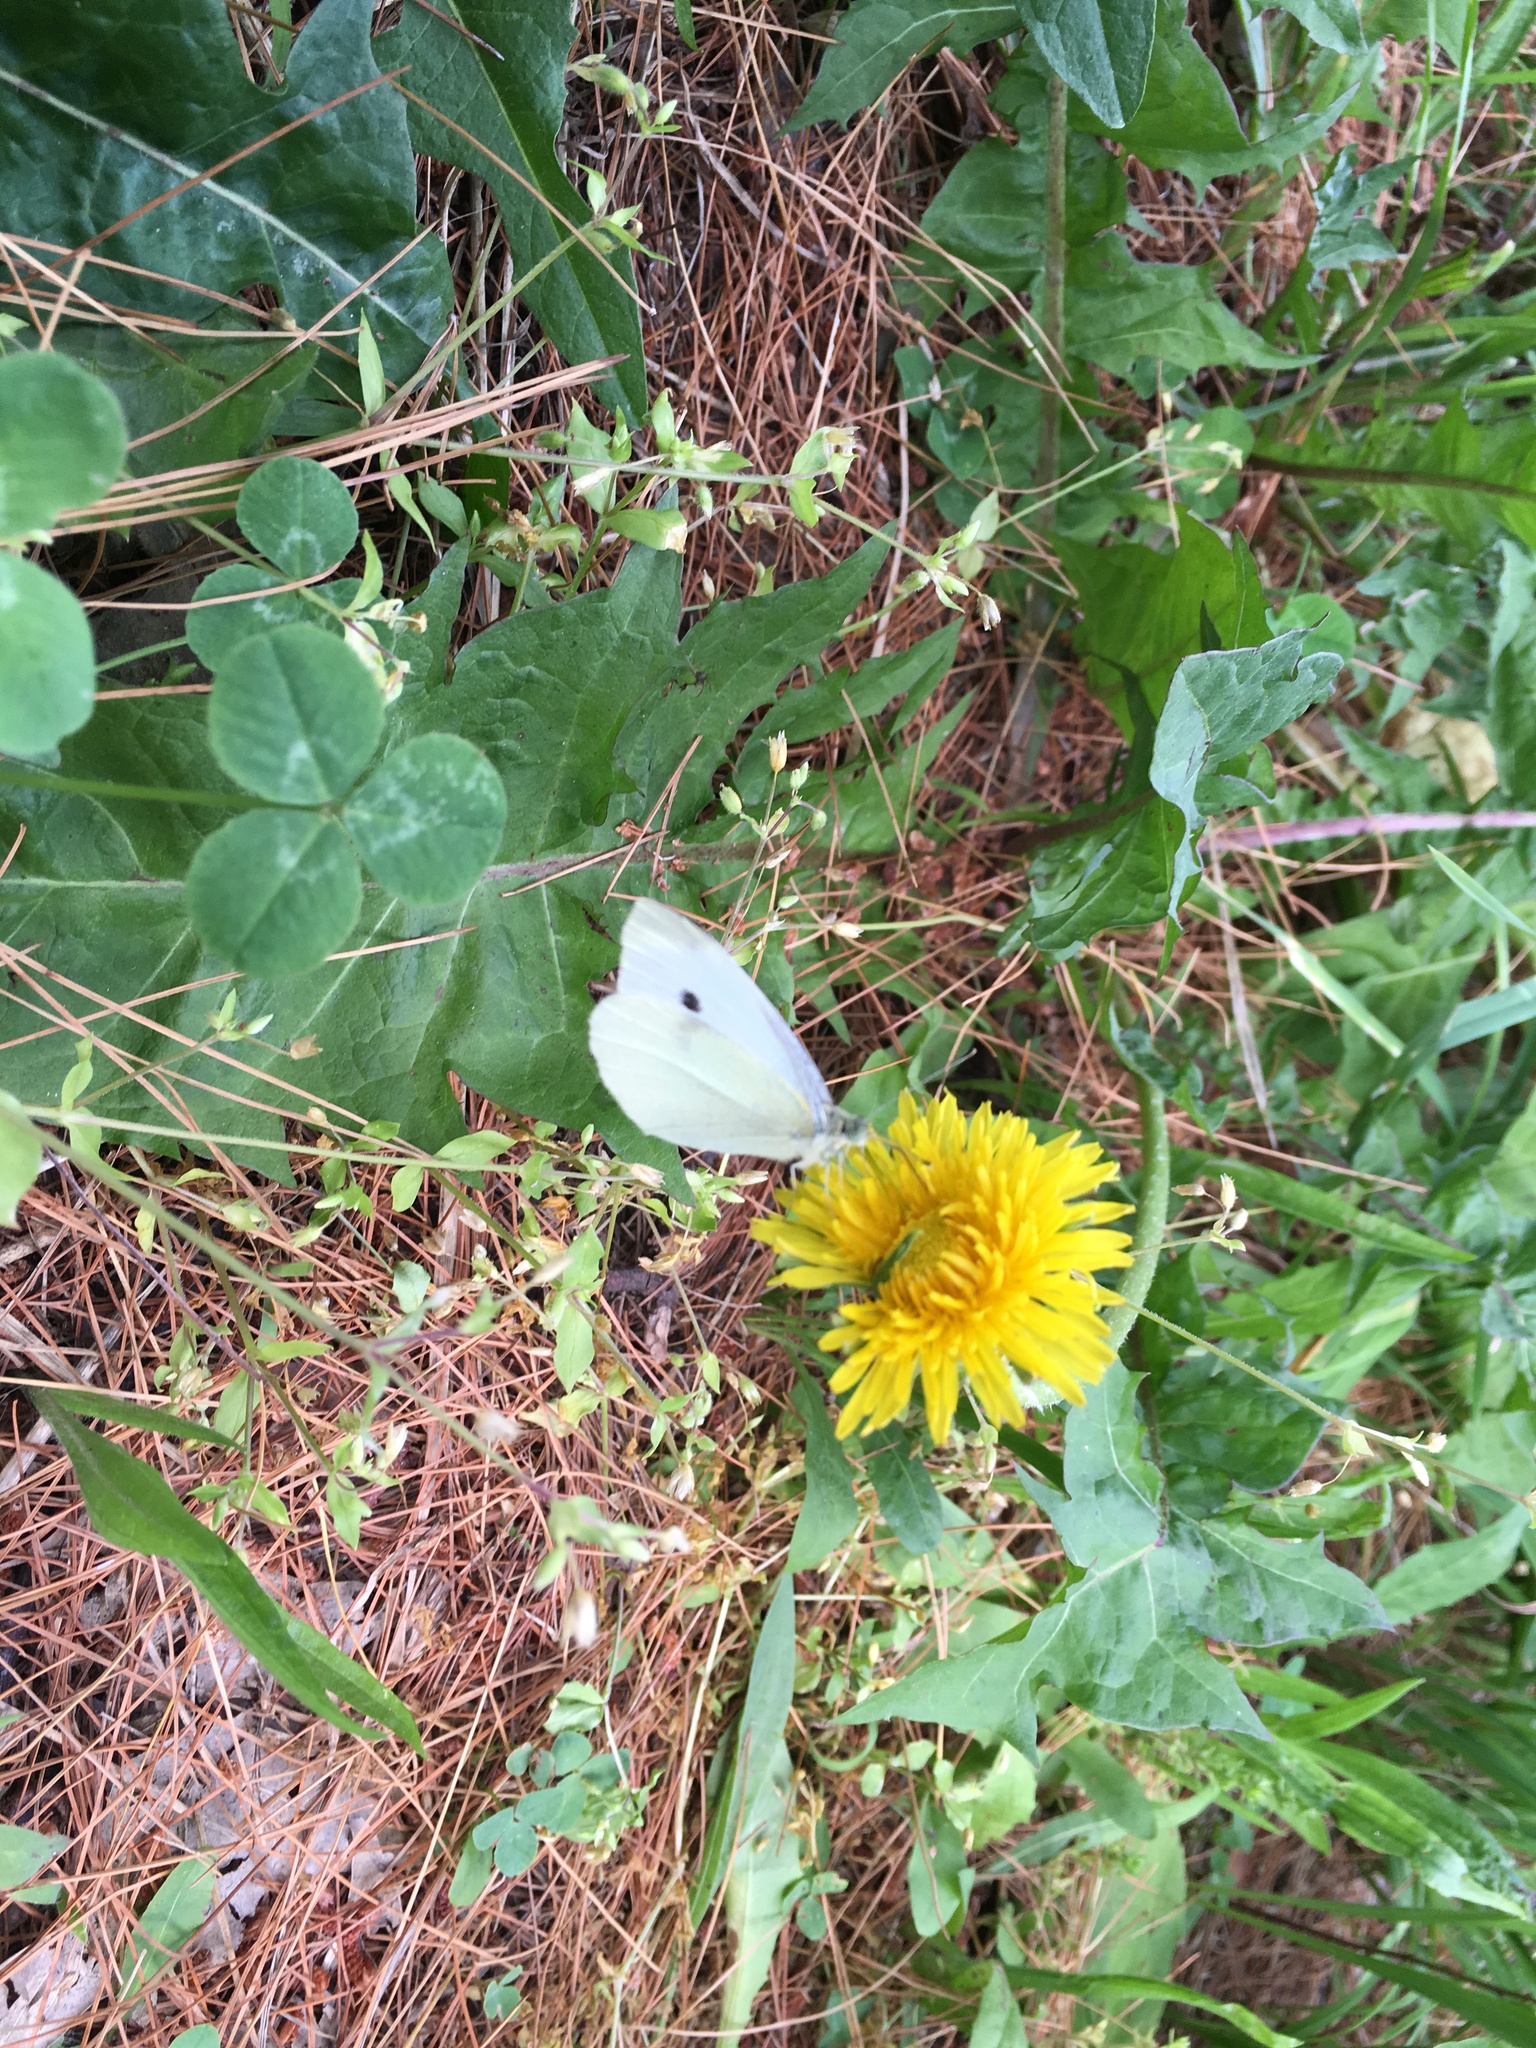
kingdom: Plantae
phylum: Tracheophyta
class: Magnoliopsida
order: Asterales
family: Asteraceae
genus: Taraxacum
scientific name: Taraxacum officinale
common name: Common dandelion
